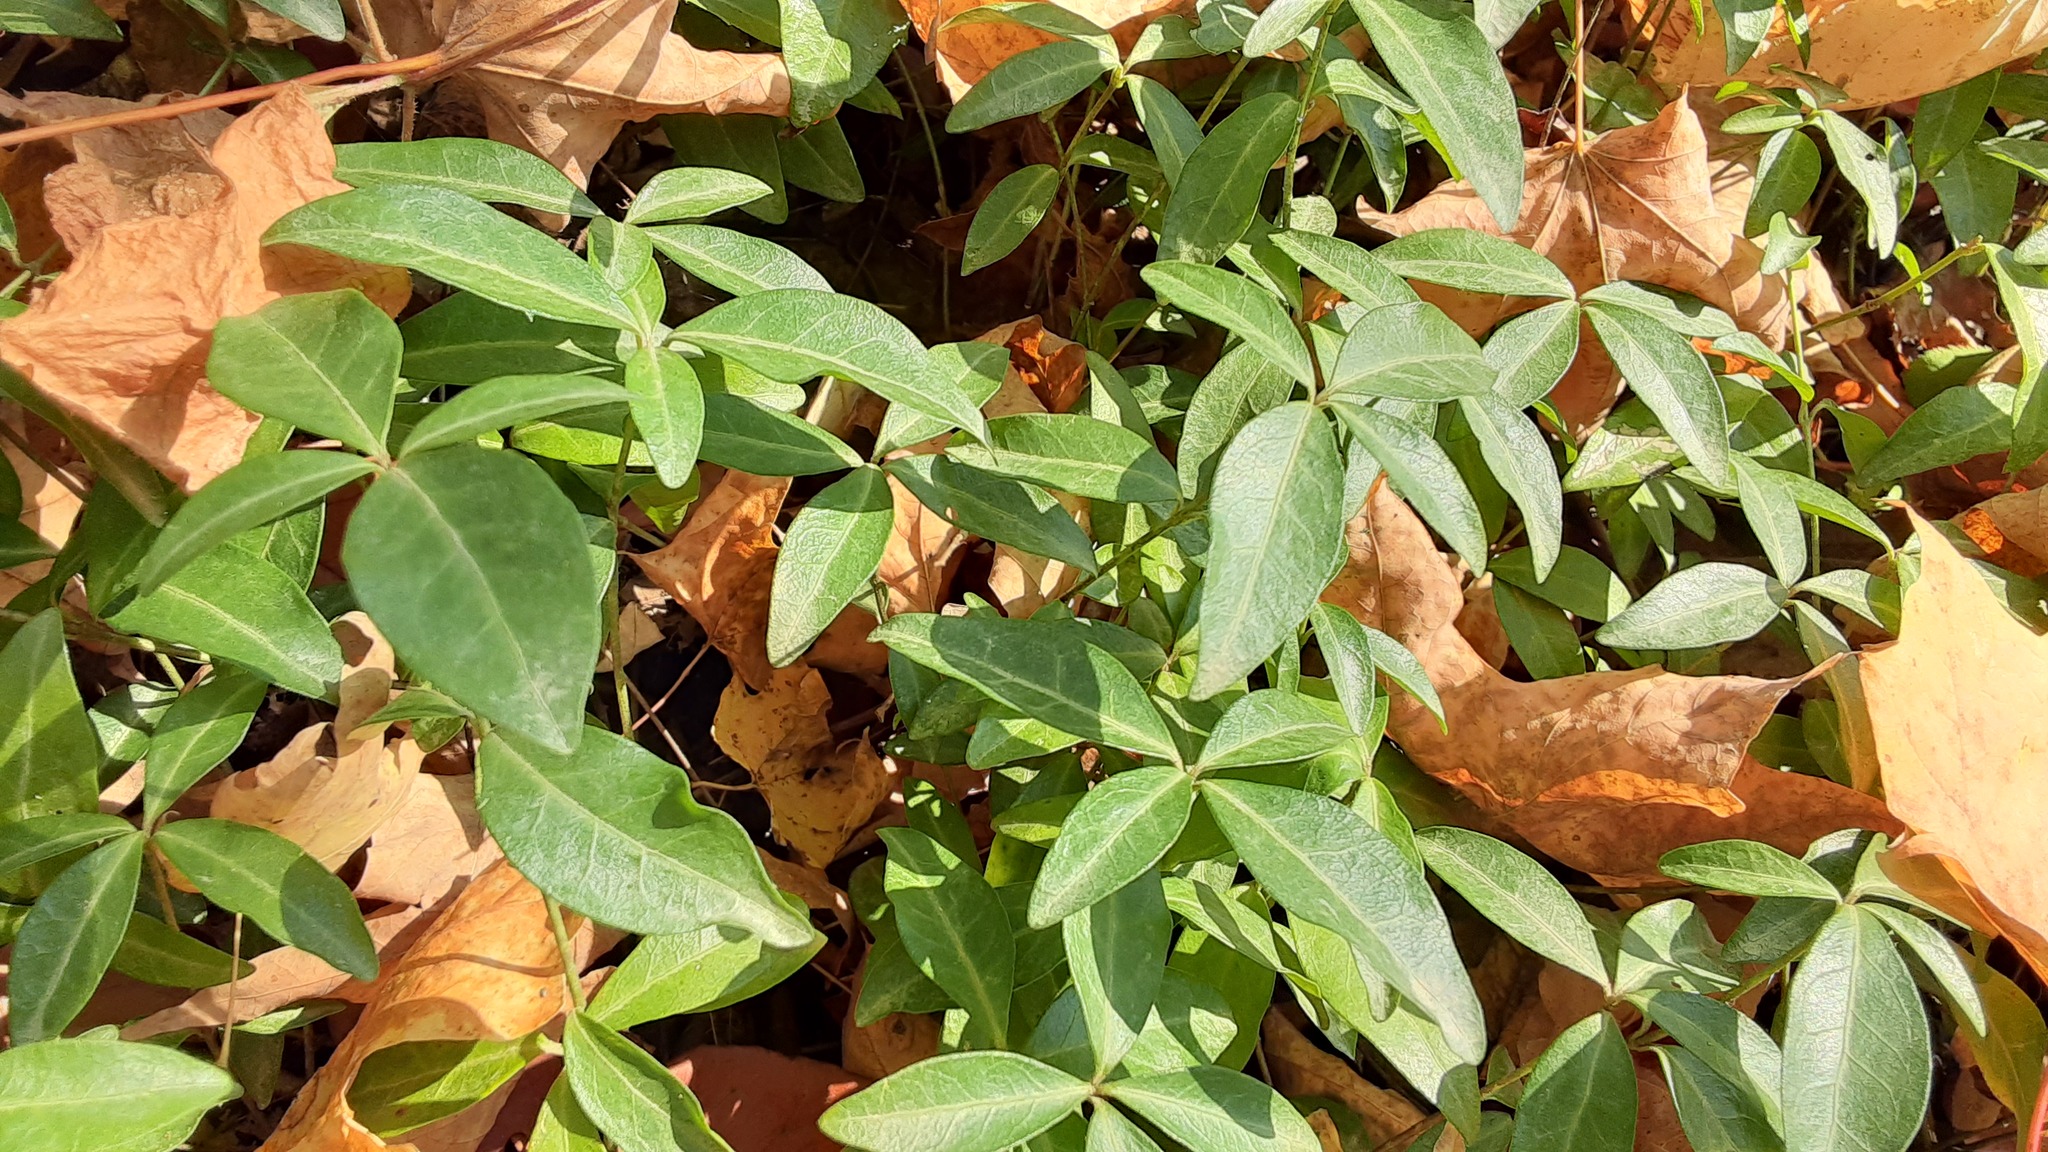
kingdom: Plantae
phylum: Tracheophyta
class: Magnoliopsida
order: Gentianales
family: Apocynaceae
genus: Vinca
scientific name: Vinca minor
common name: Lesser periwinkle
